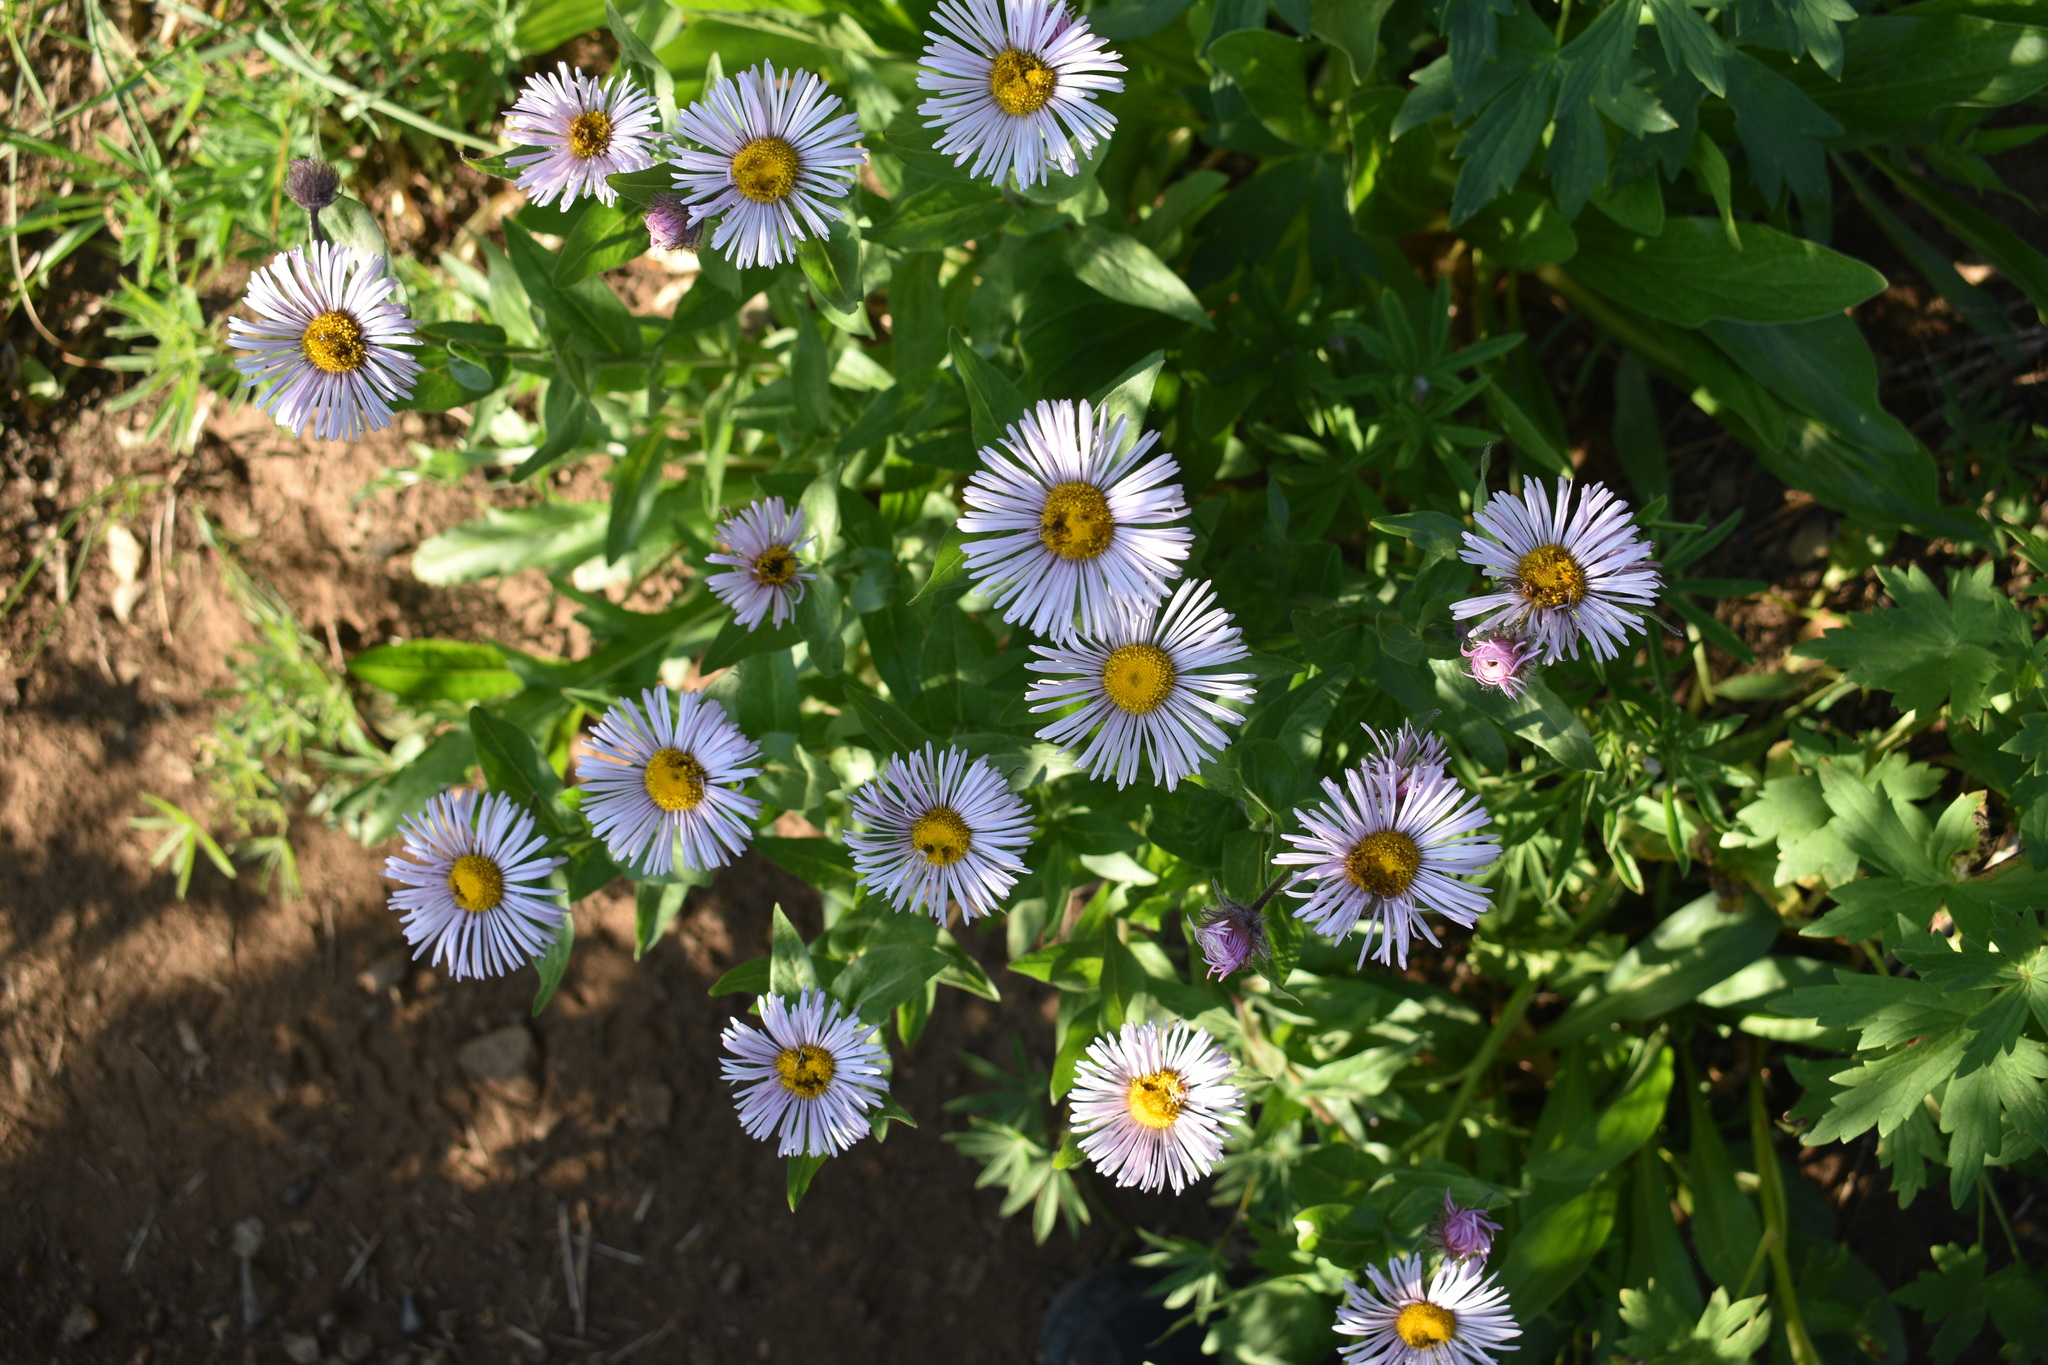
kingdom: Plantae
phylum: Tracheophyta
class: Magnoliopsida
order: Asterales
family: Asteraceae
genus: Erigeron
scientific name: Erigeron speciosus
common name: Aspen fleabane
